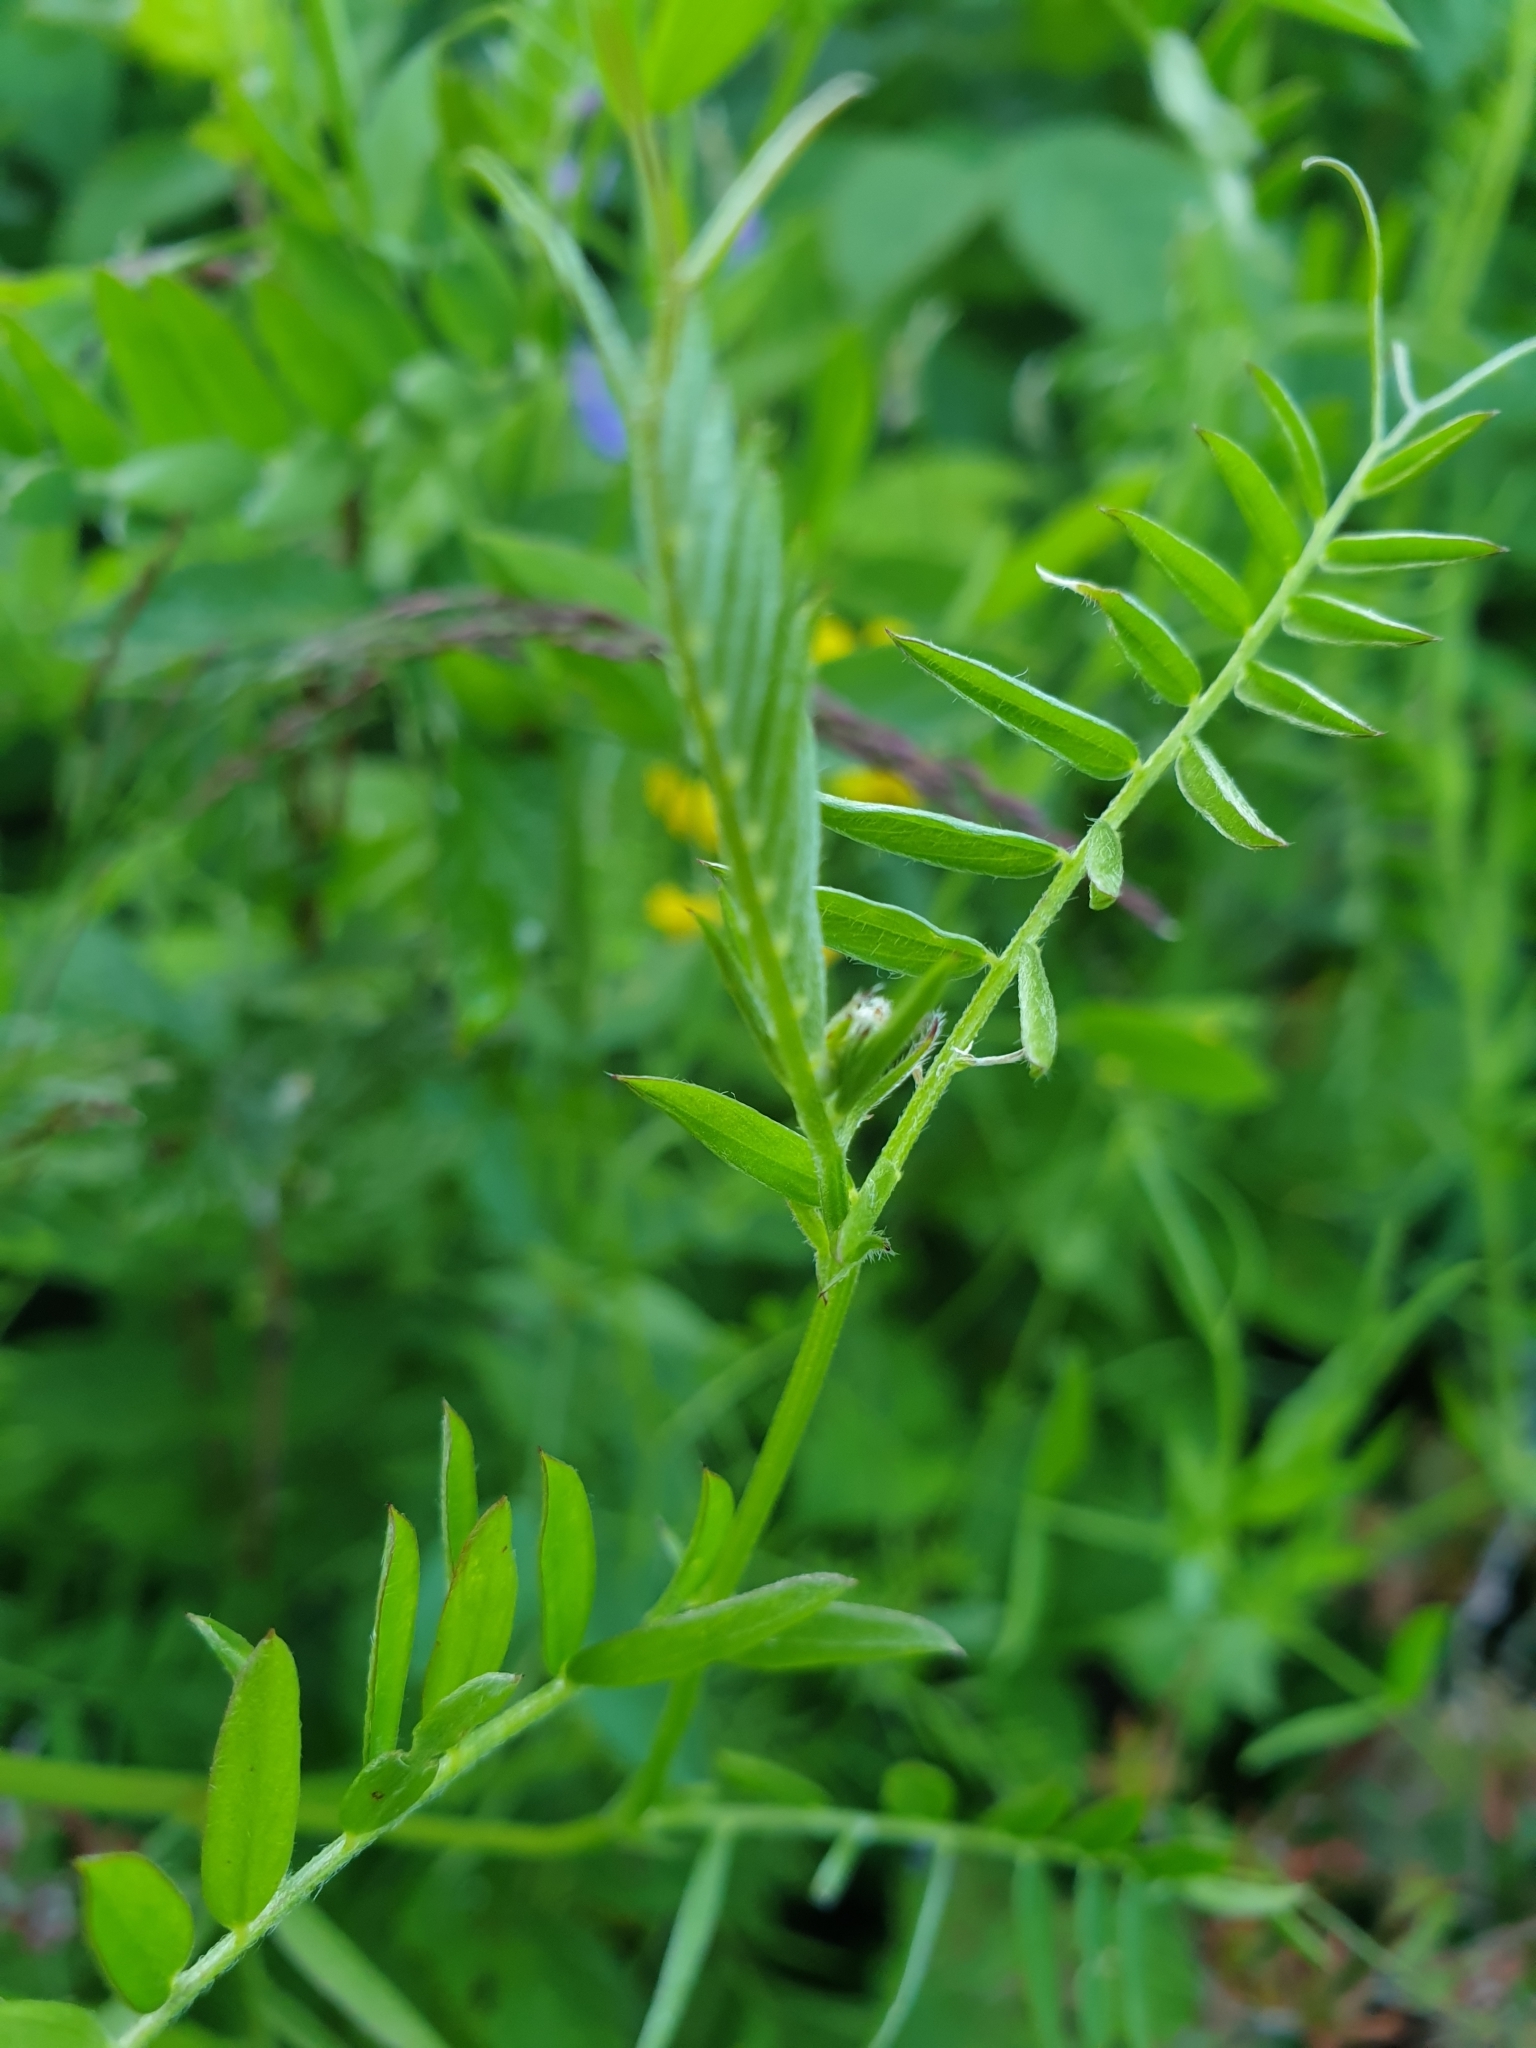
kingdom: Plantae
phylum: Tracheophyta
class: Magnoliopsida
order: Fabales
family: Fabaceae
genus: Vicia
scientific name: Vicia cracca
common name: Bird vetch
